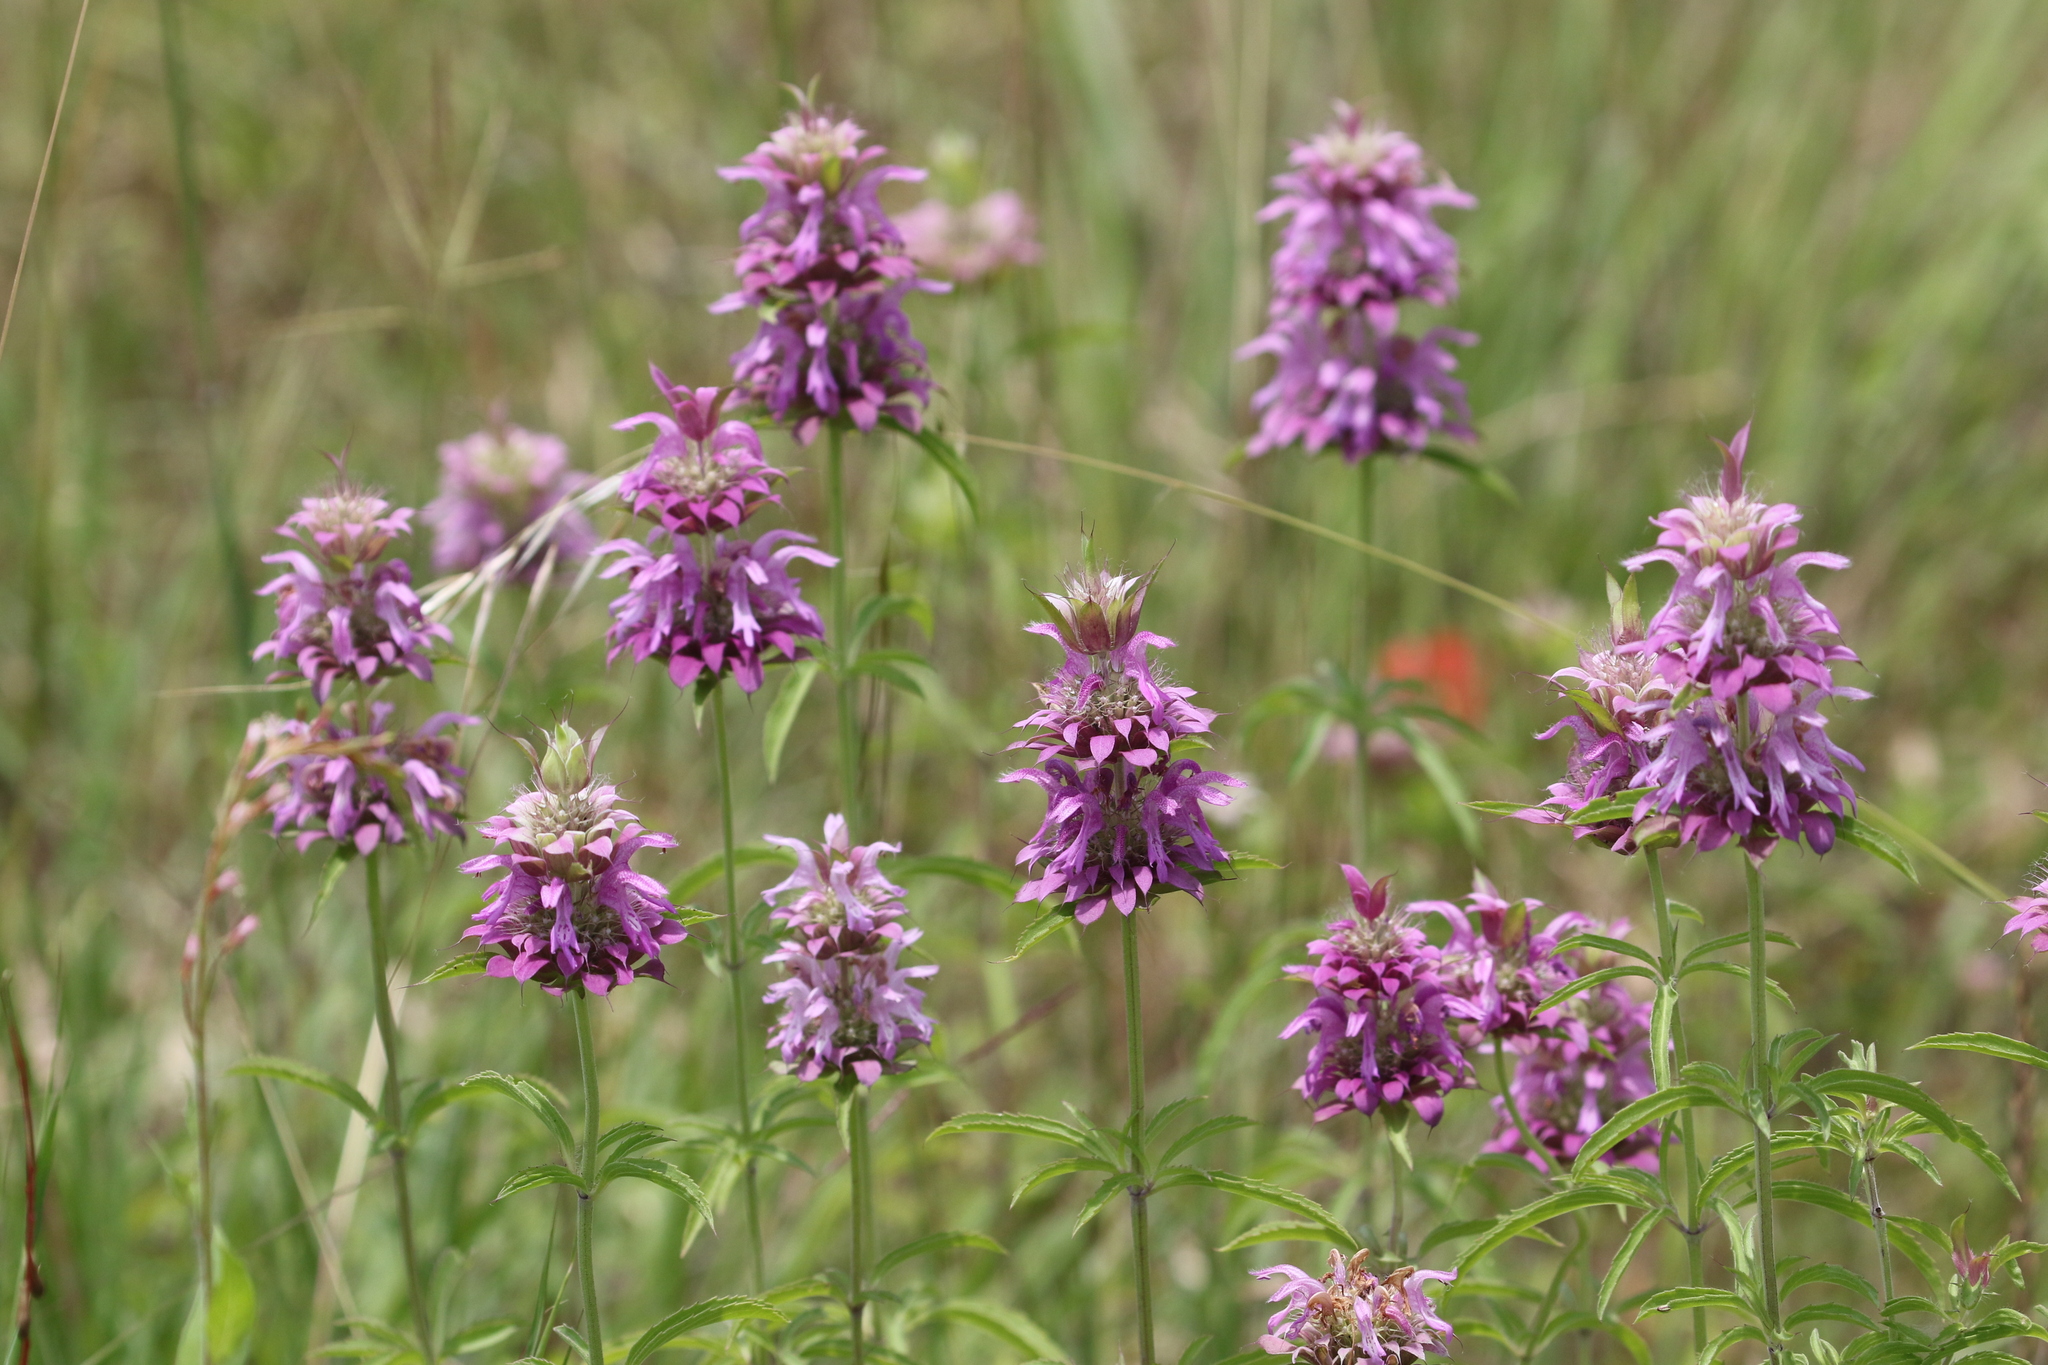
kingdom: Plantae
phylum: Tracheophyta
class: Magnoliopsida
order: Lamiales
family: Lamiaceae
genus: Monarda
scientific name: Monarda citriodora
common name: Lemon beebalm
